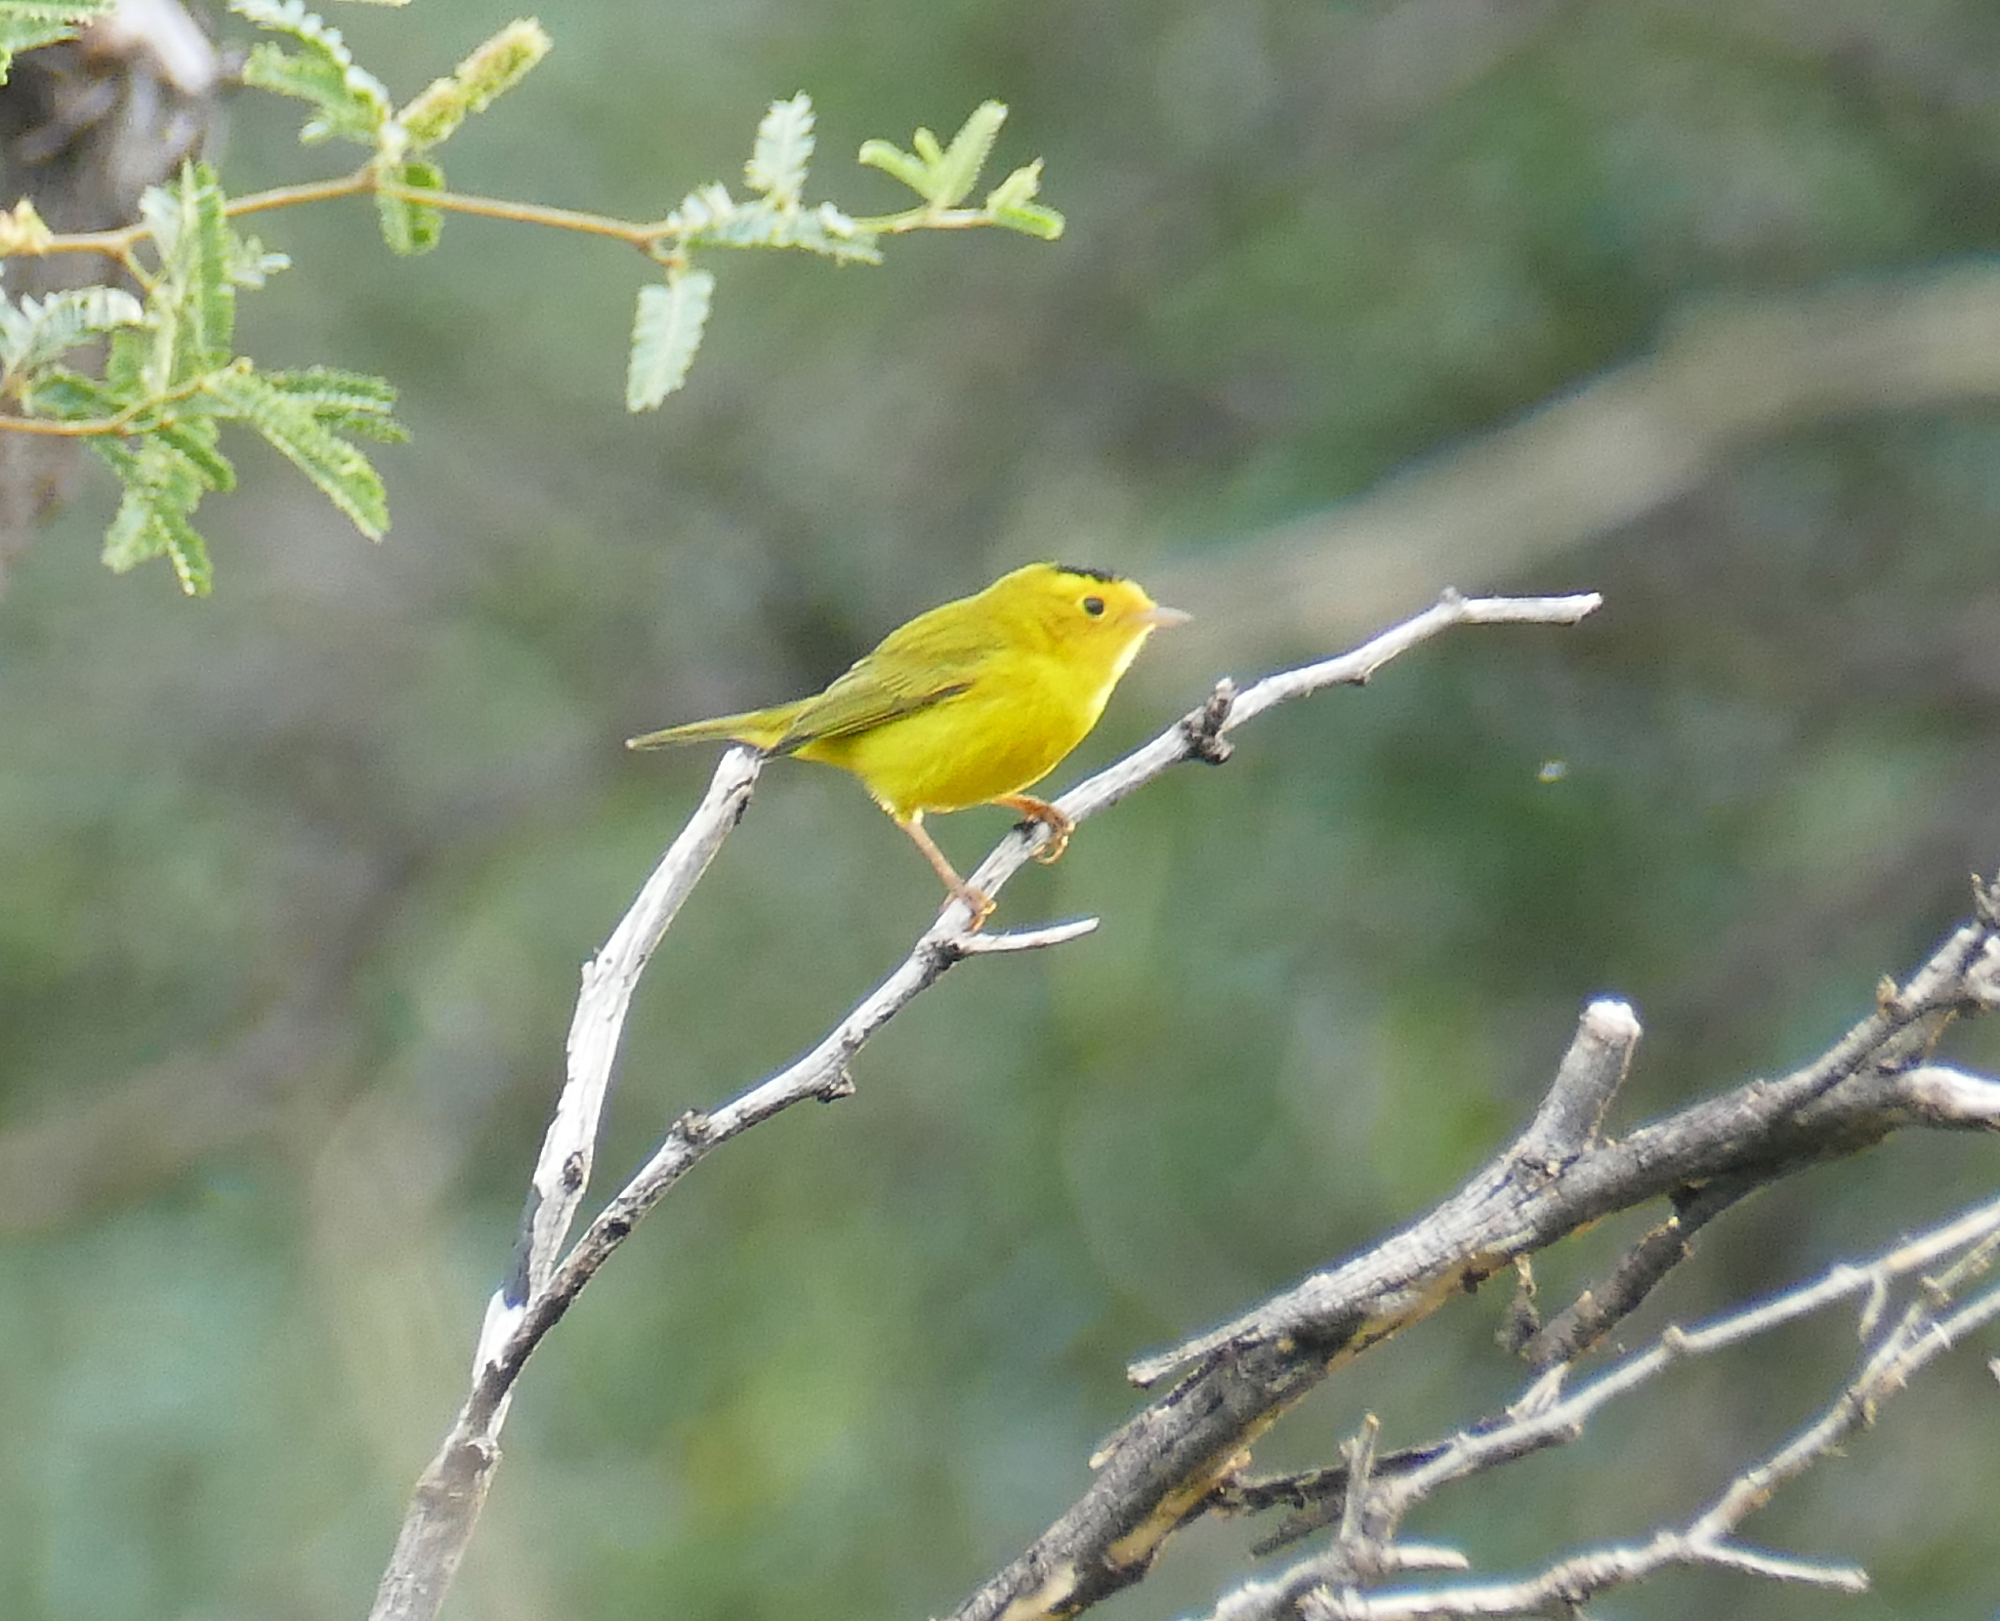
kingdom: Animalia
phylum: Chordata
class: Aves
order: Passeriformes
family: Parulidae
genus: Cardellina
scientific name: Cardellina pusilla
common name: Wilson's warbler
